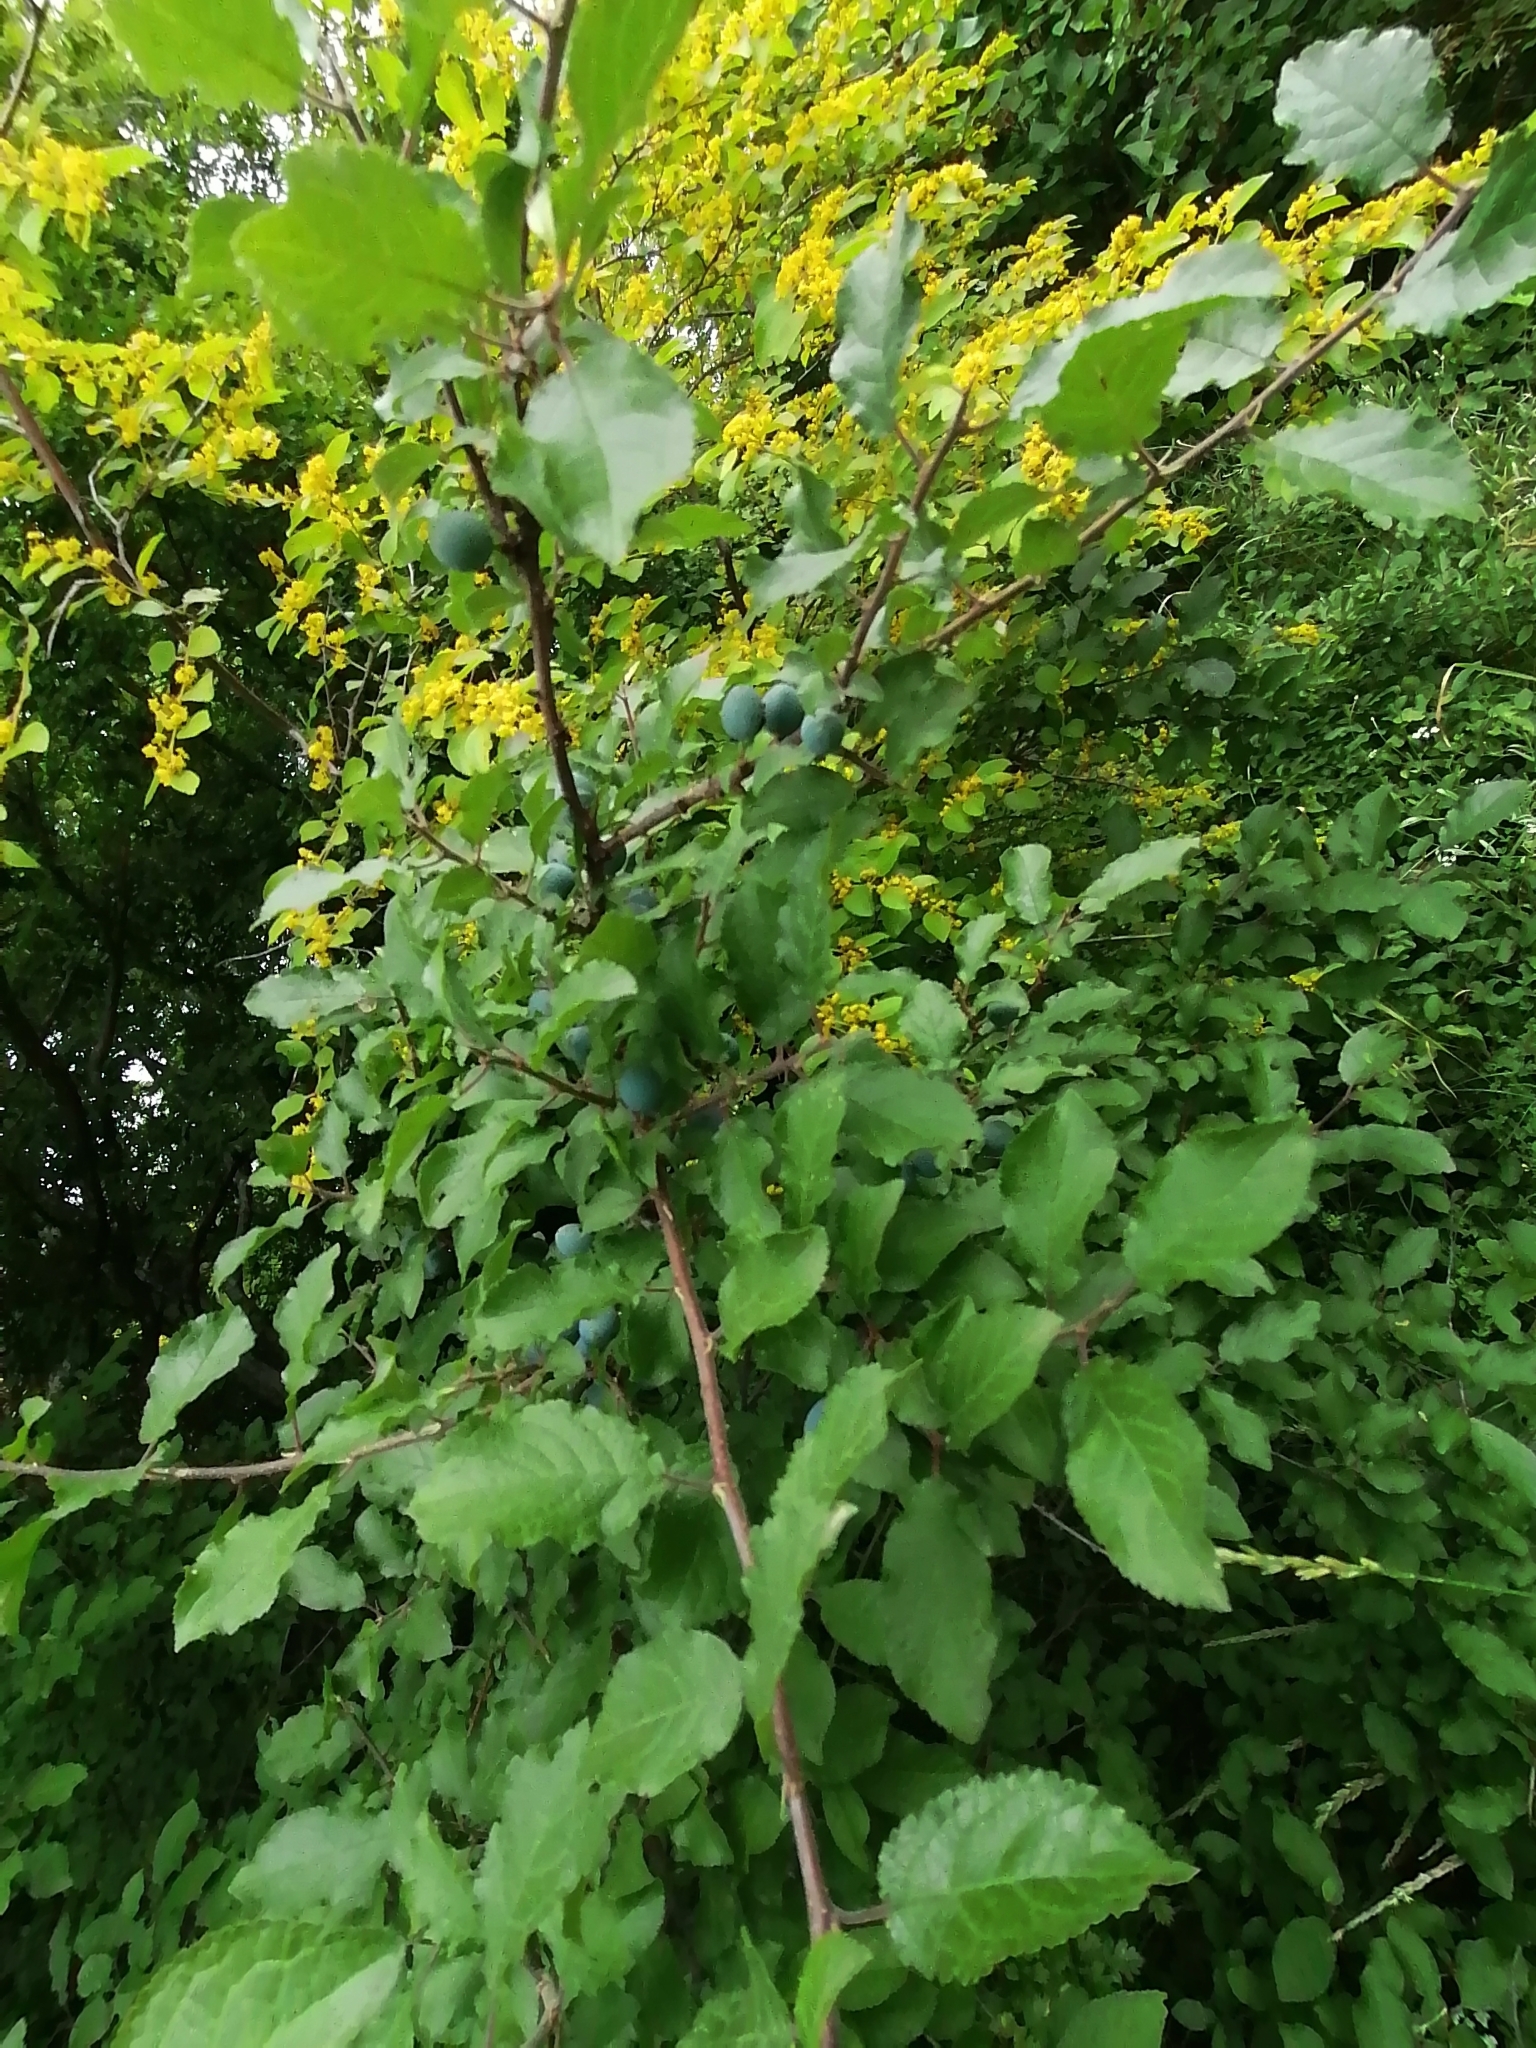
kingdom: Plantae
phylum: Tracheophyta
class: Magnoliopsida
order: Rosales
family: Rosaceae
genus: Prunus
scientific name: Prunus spinosa
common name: Blackthorn
